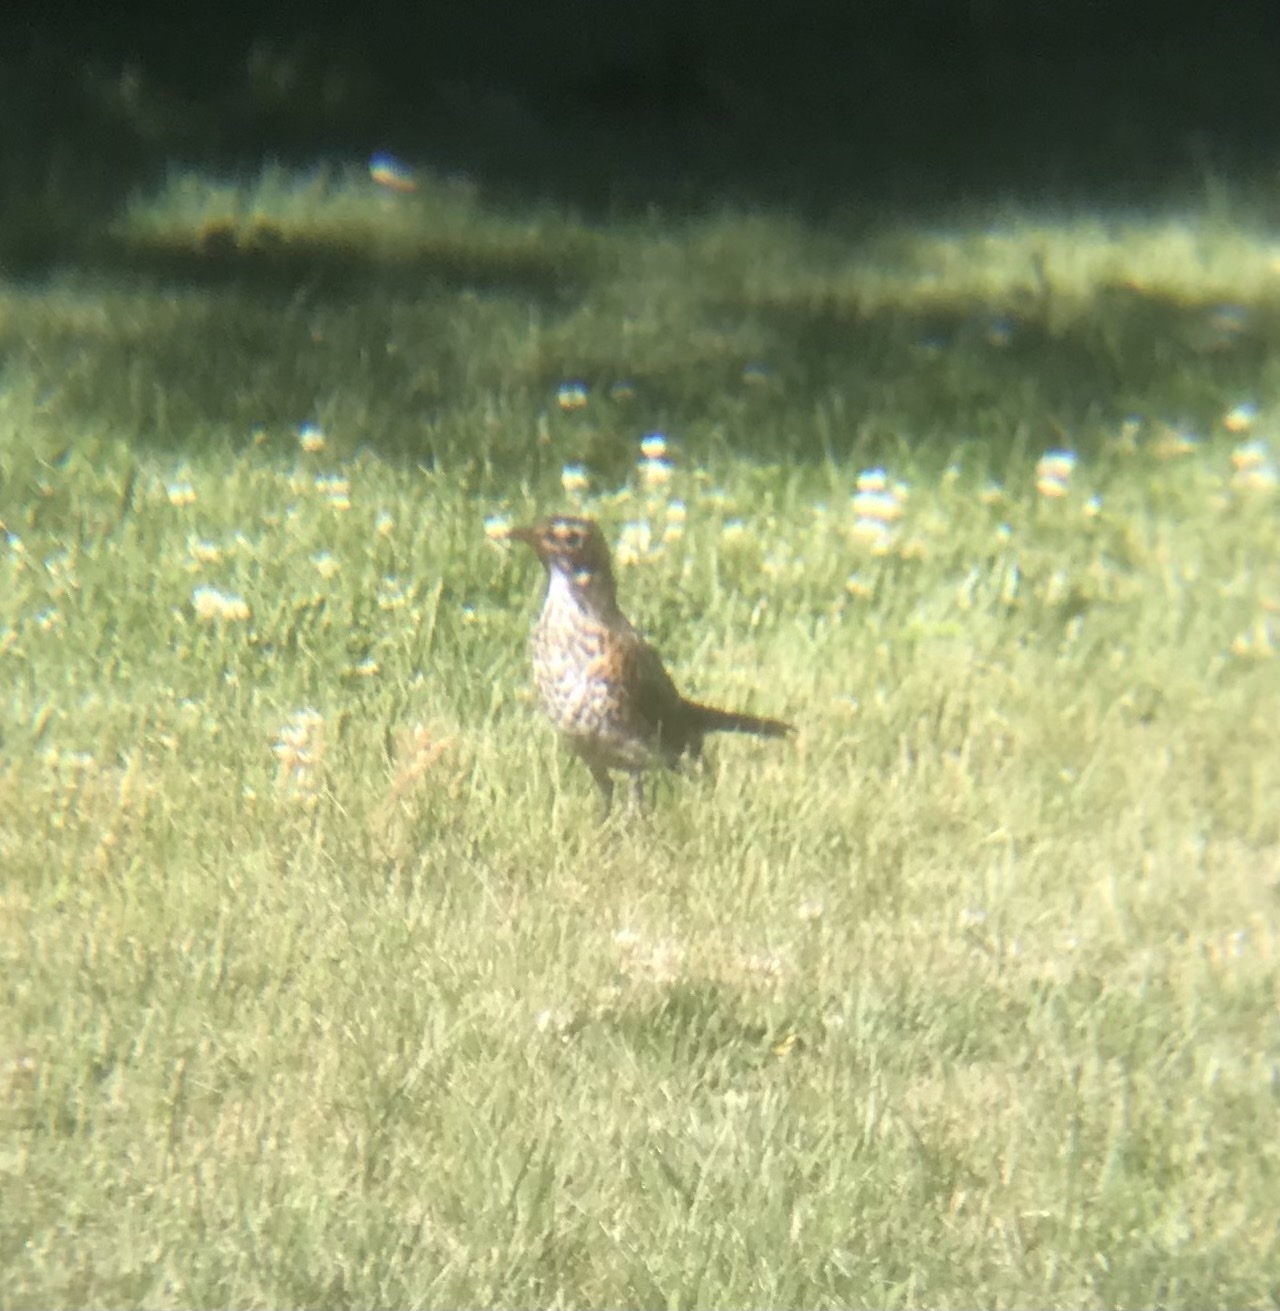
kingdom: Animalia
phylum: Chordata
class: Aves
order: Passeriformes
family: Turdidae
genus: Turdus
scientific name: Turdus migratorius
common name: American robin
